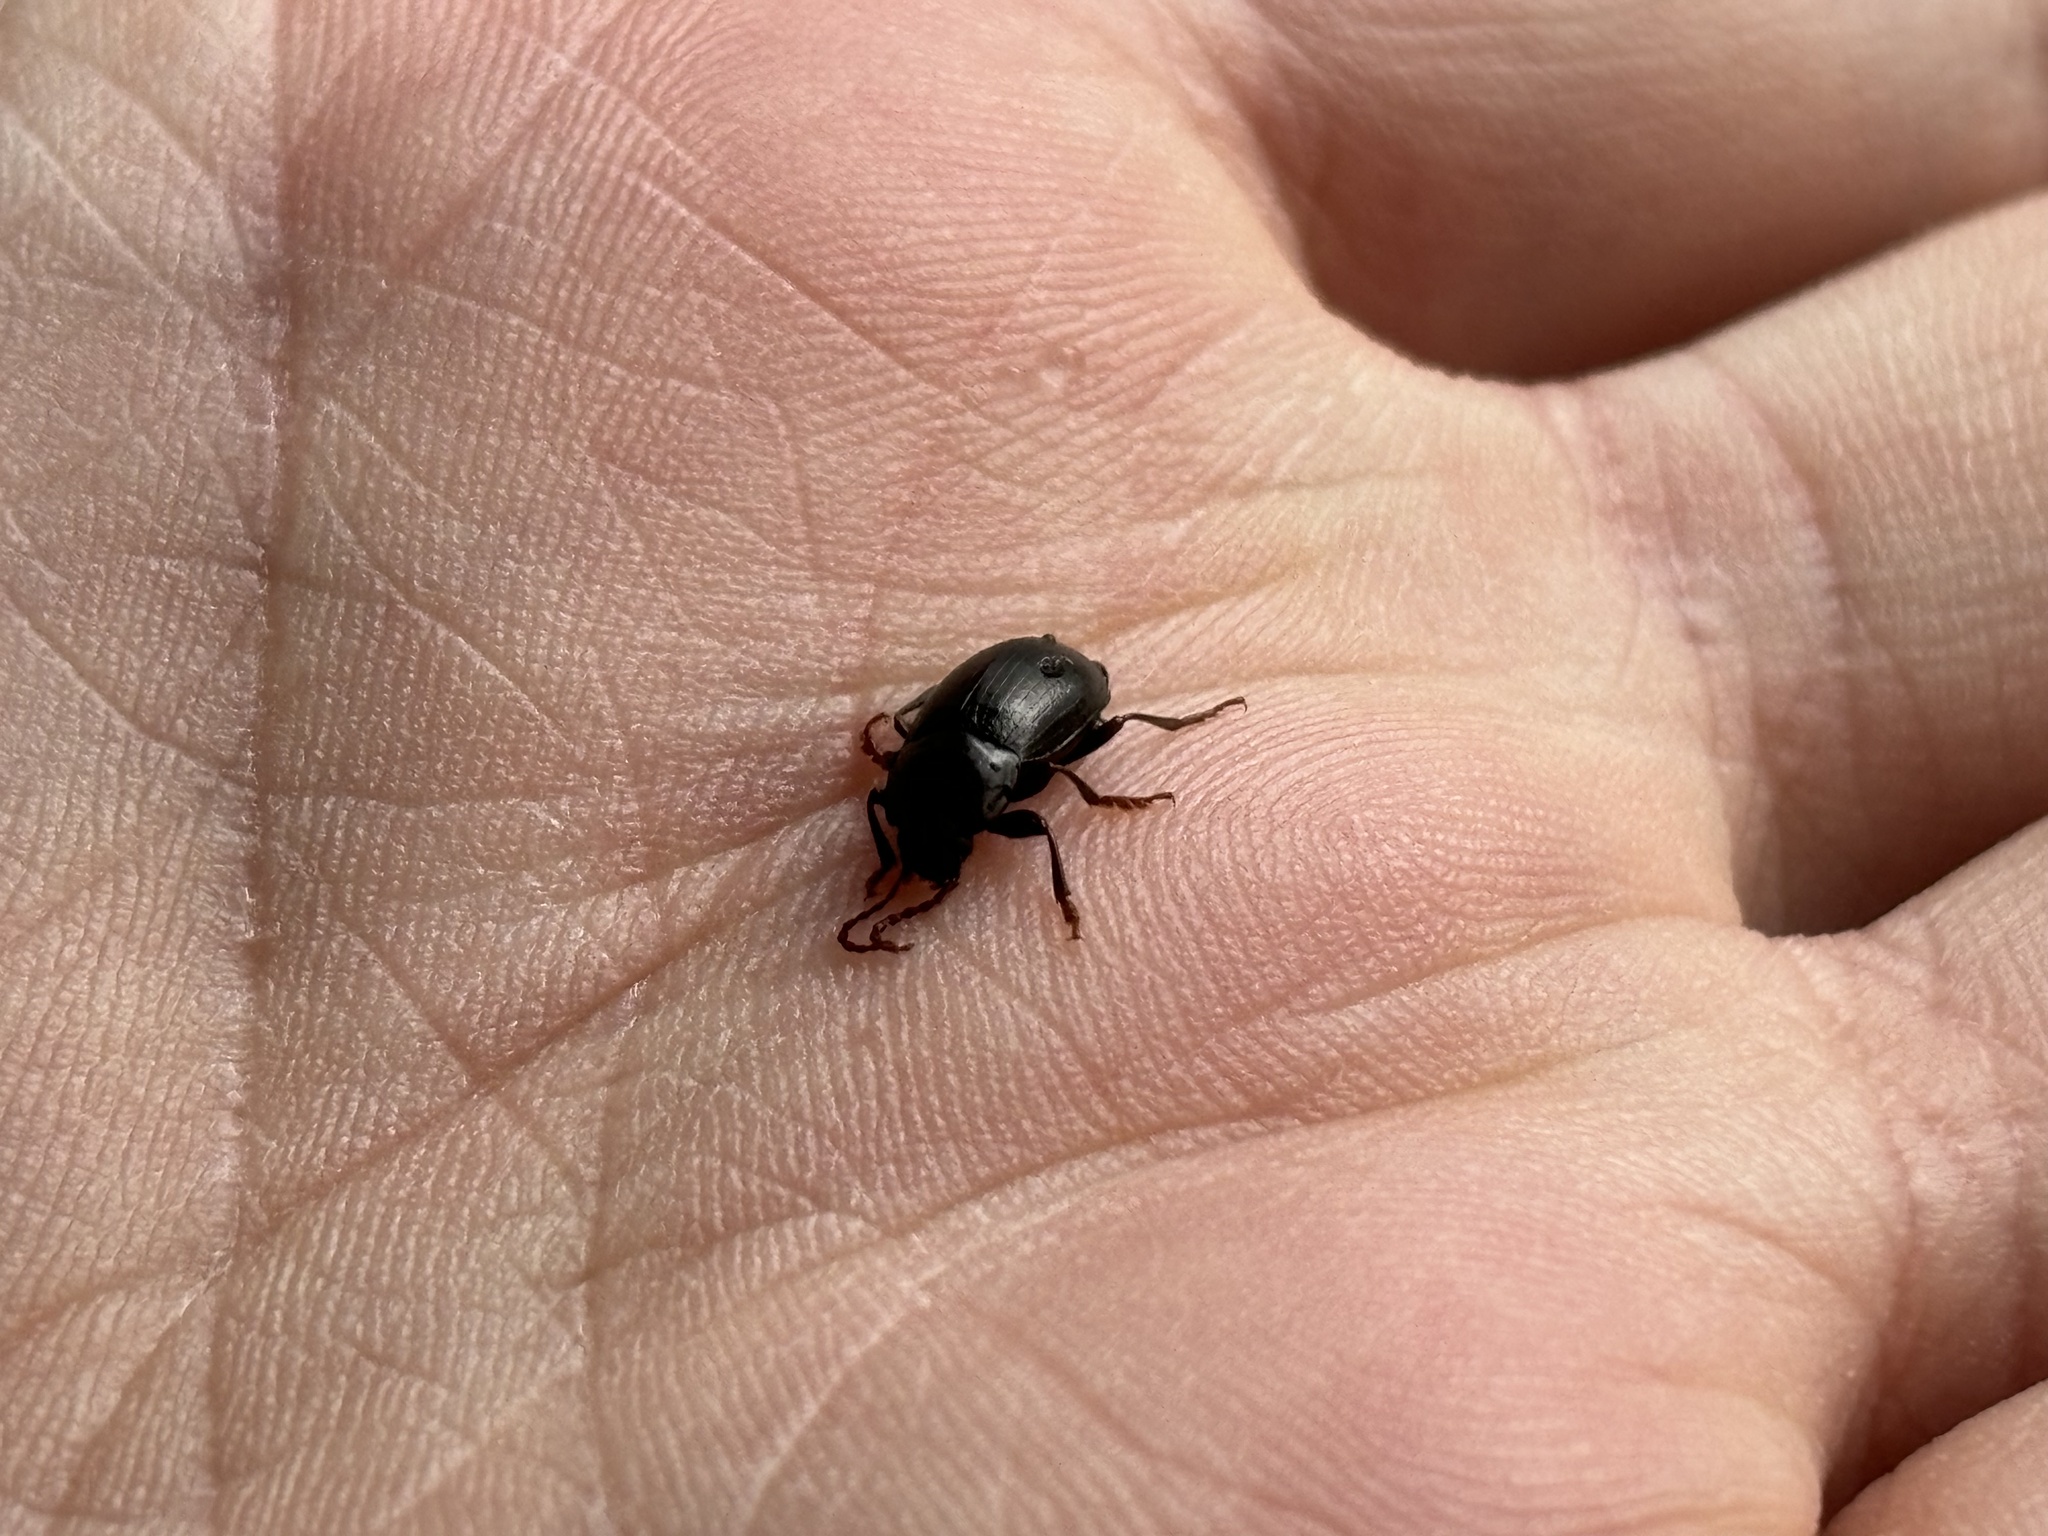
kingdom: Animalia
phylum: Arthropoda
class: Insecta
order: Coleoptera
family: Tenebrionidae
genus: Nalassus
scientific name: Nalassus laevioctostriatus
